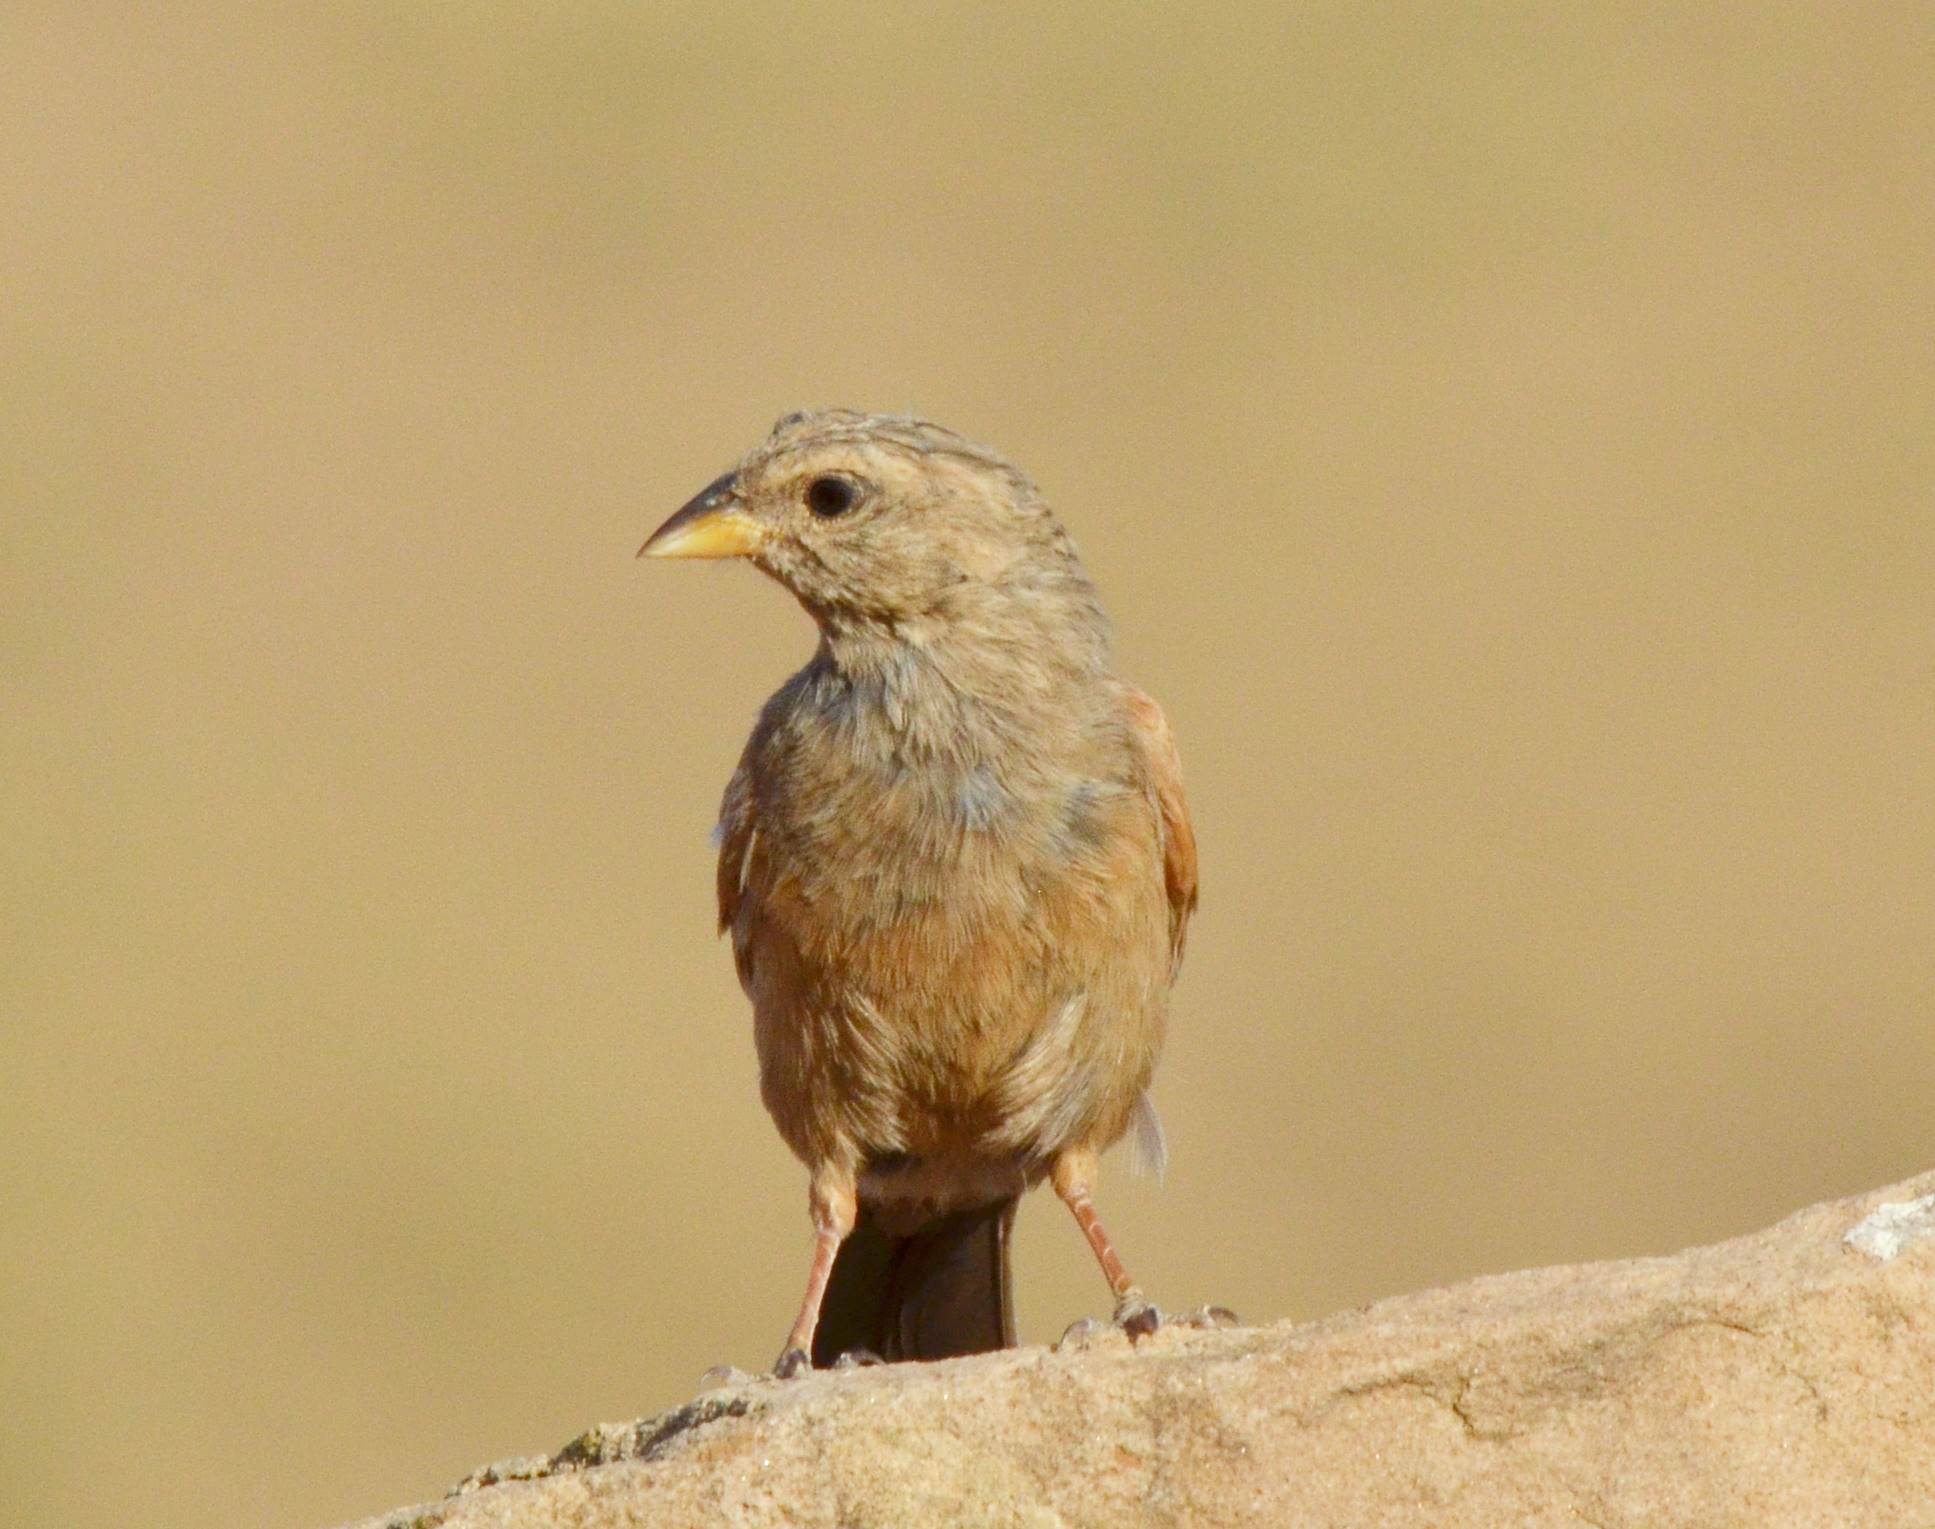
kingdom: Animalia
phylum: Chordata
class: Aves
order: Passeriformes
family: Emberizidae
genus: Emberiza
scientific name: Emberiza sahari
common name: House bunting
